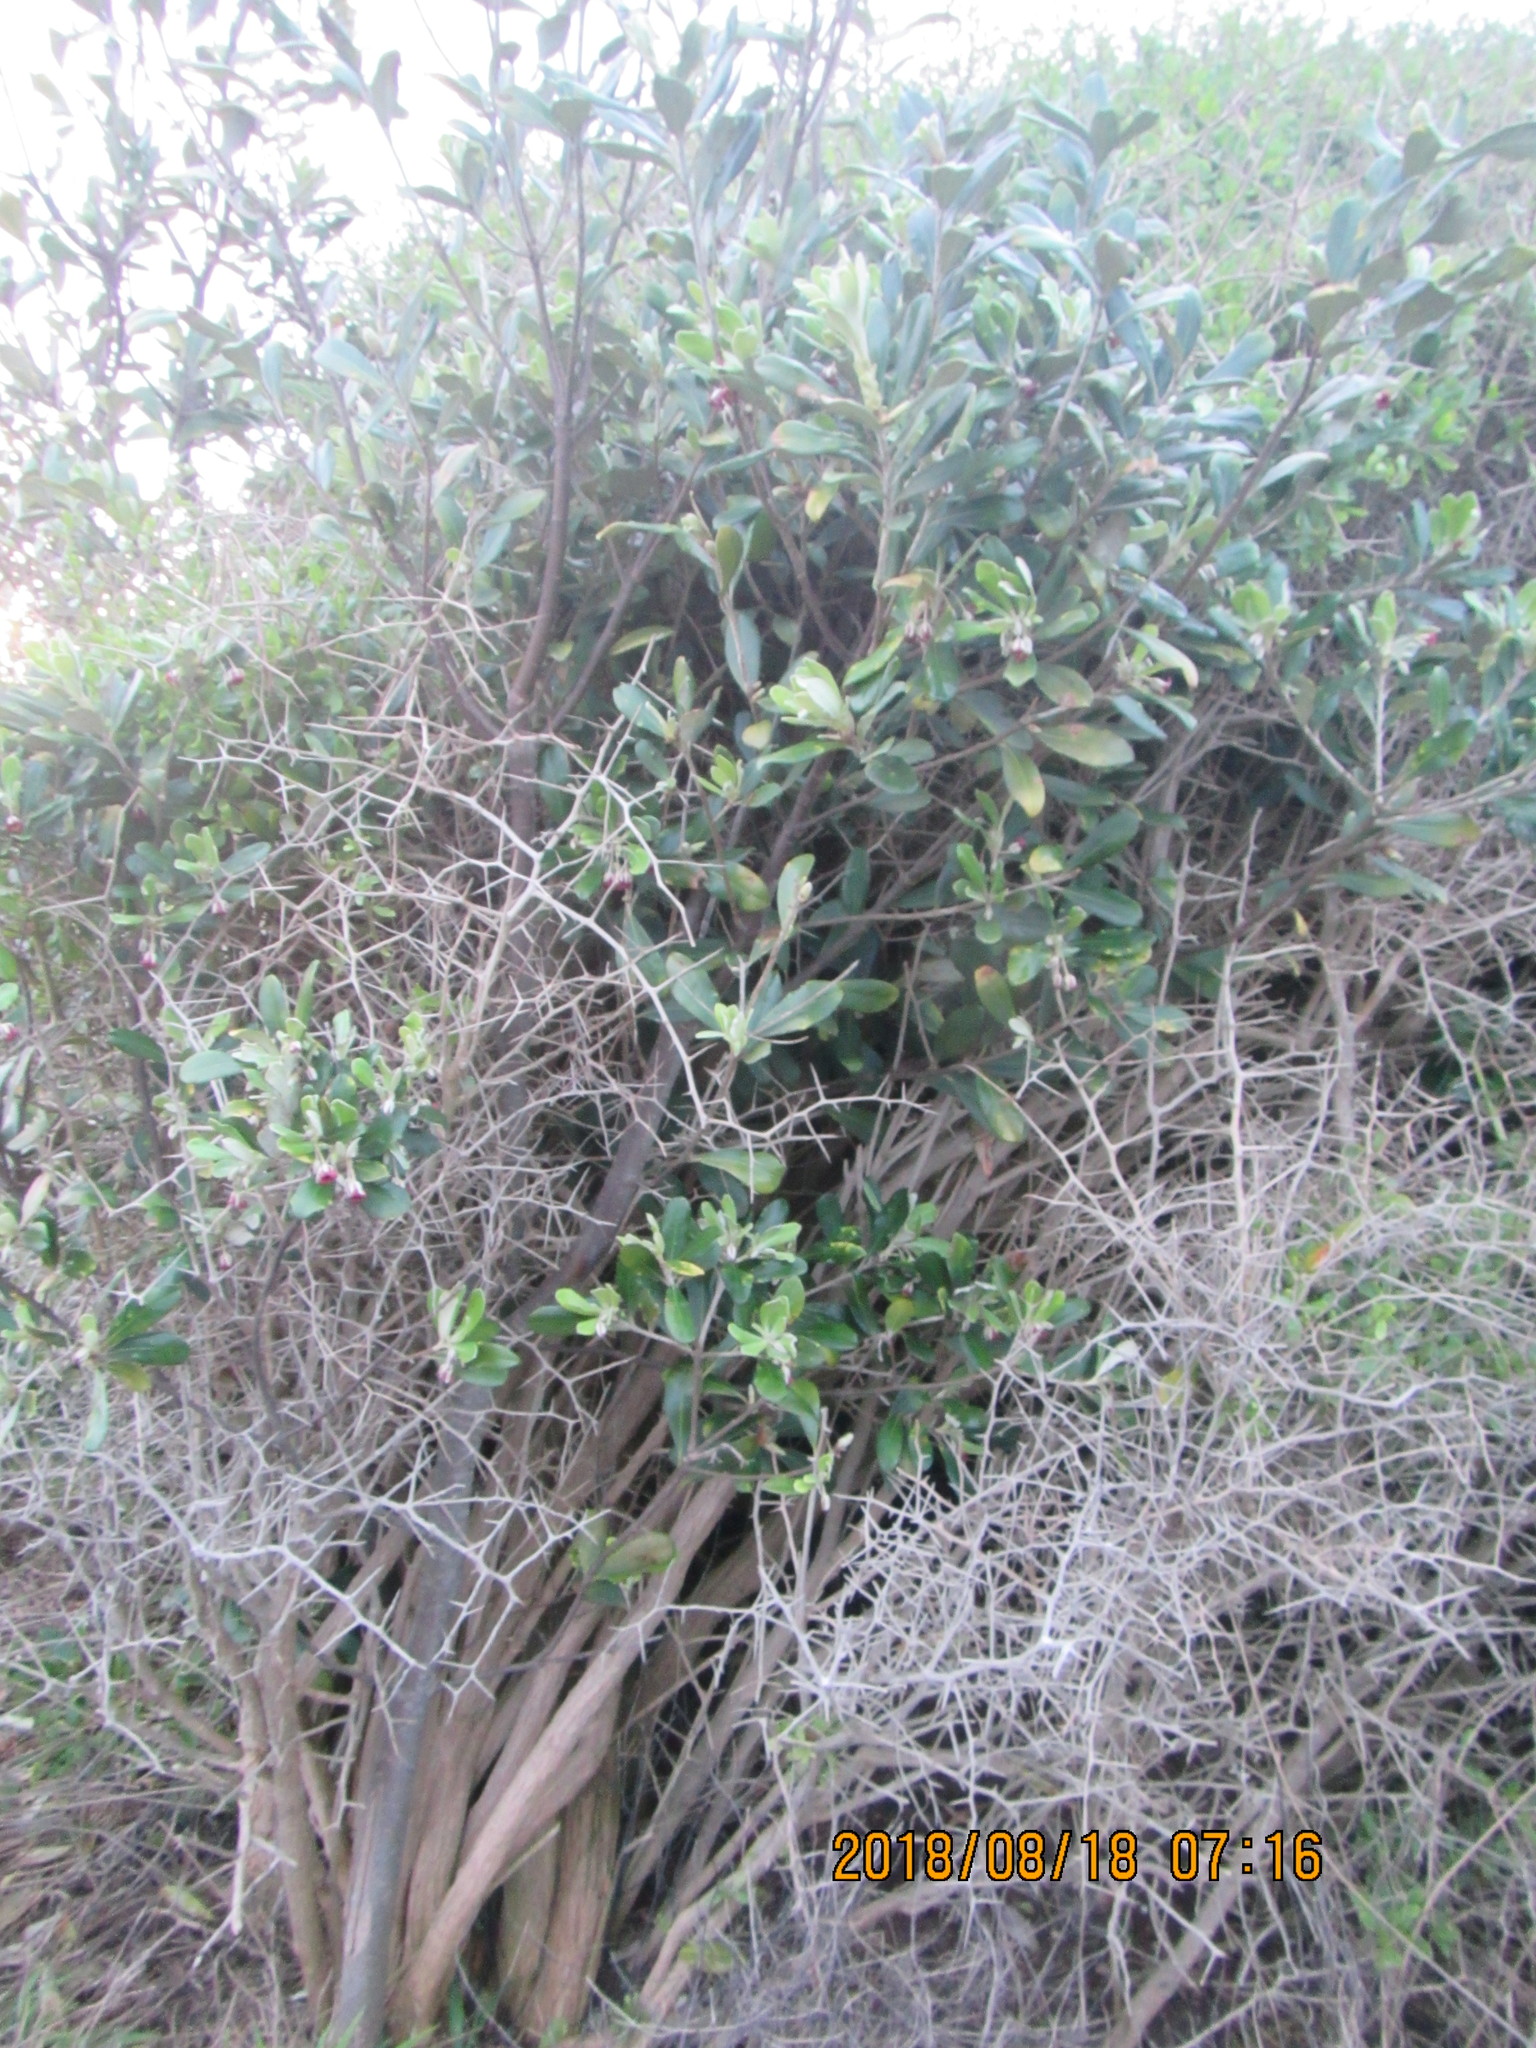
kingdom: Plantae
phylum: Tracheophyta
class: Magnoliopsida
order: Apiales
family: Pittosporaceae
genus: Pittosporum
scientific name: Pittosporum crassifolium
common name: Karo
